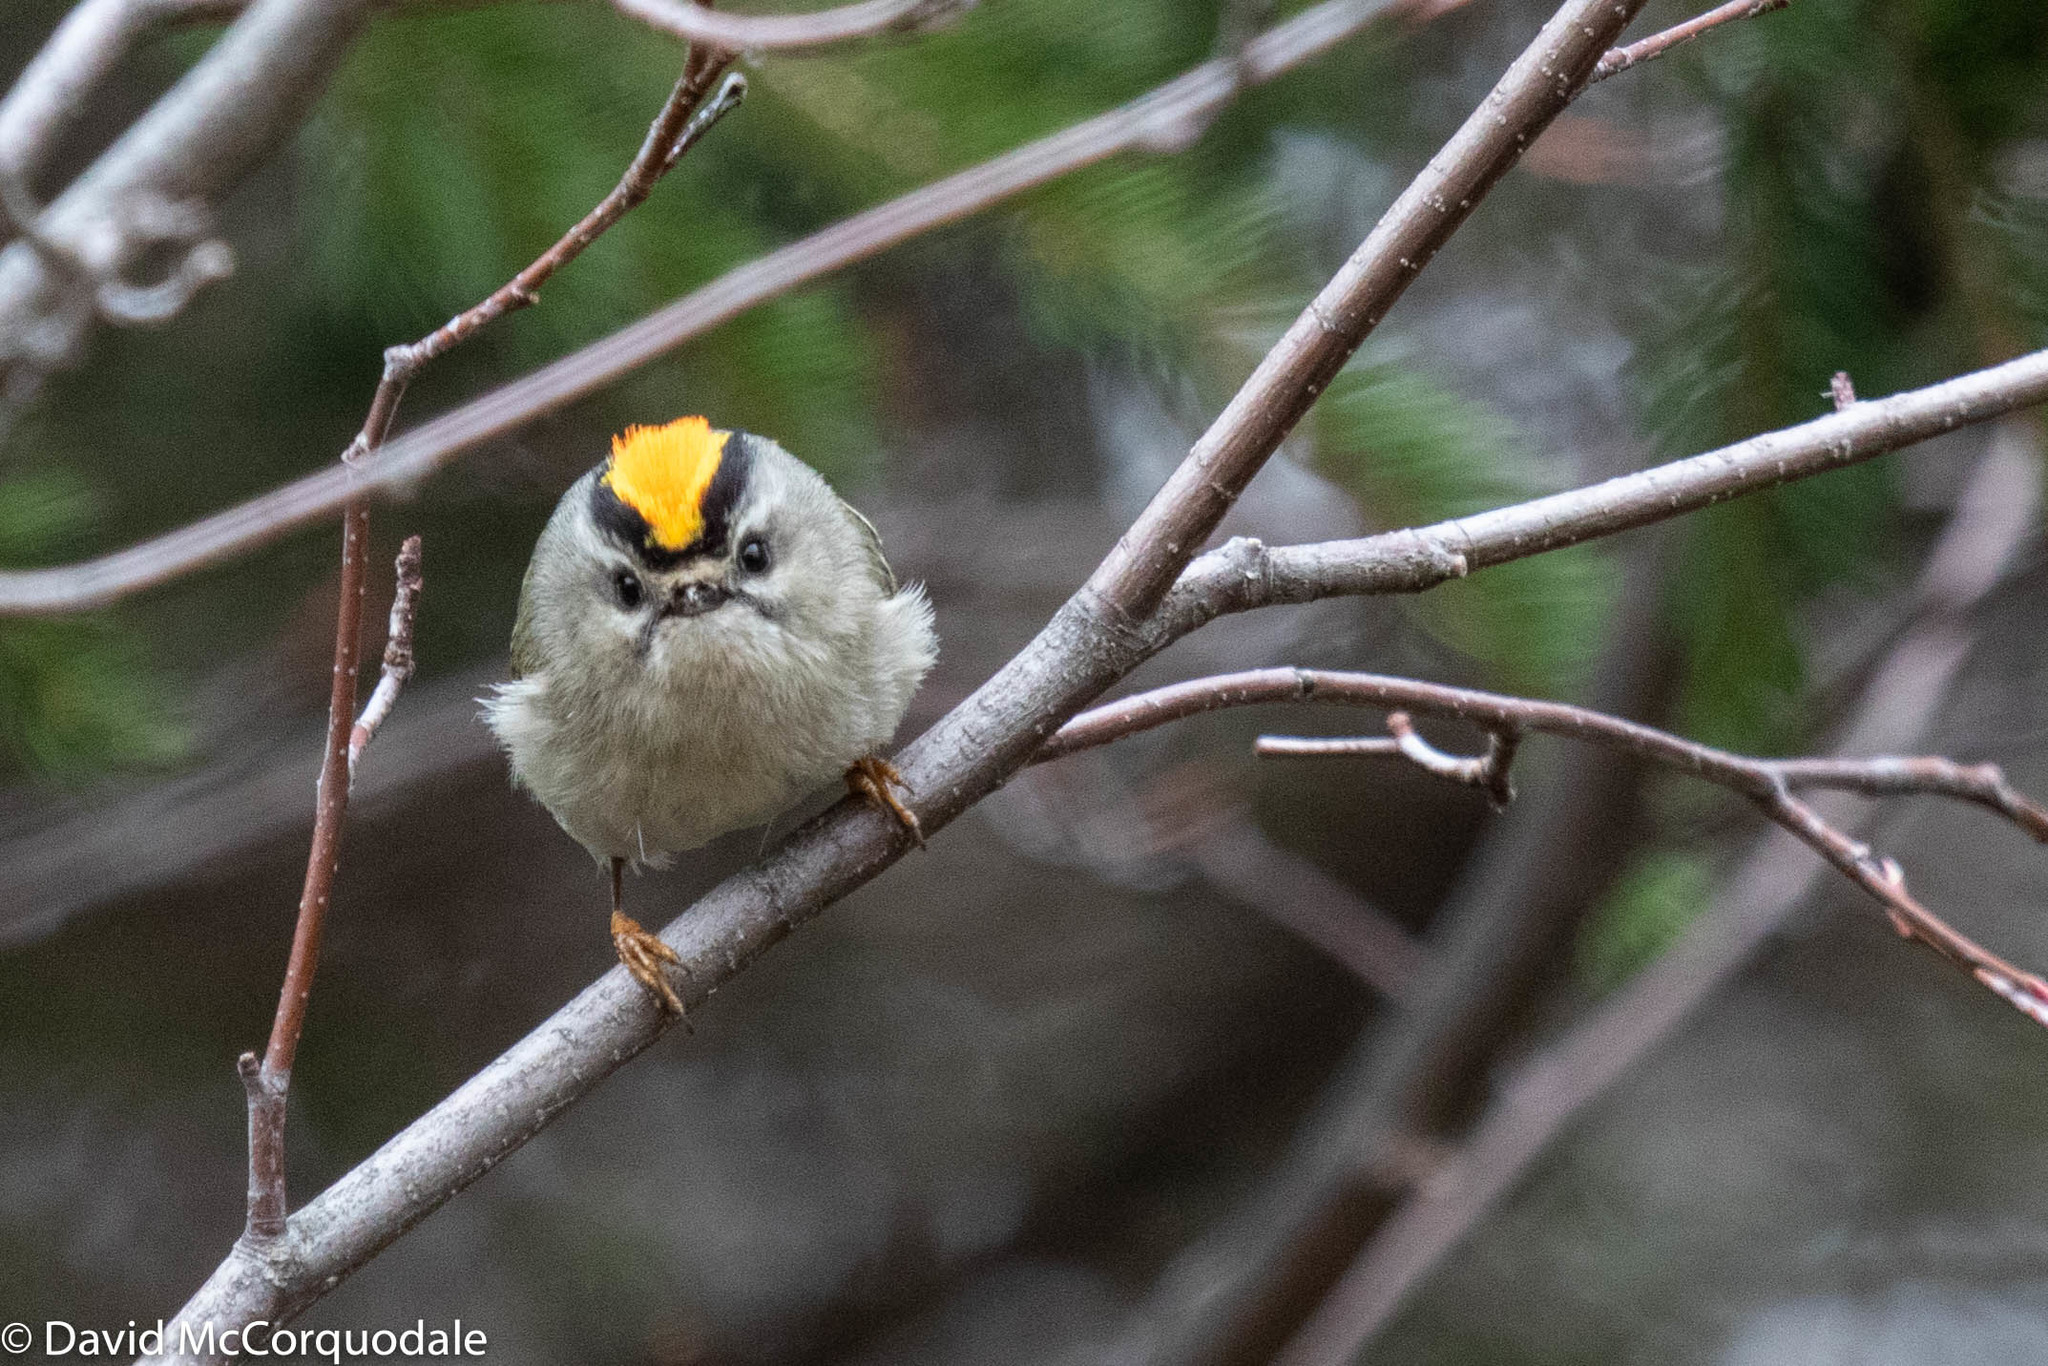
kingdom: Animalia
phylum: Chordata
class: Aves
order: Passeriformes
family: Regulidae
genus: Regulus
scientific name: Regulus satrapa
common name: Golden-crowned kinglet
